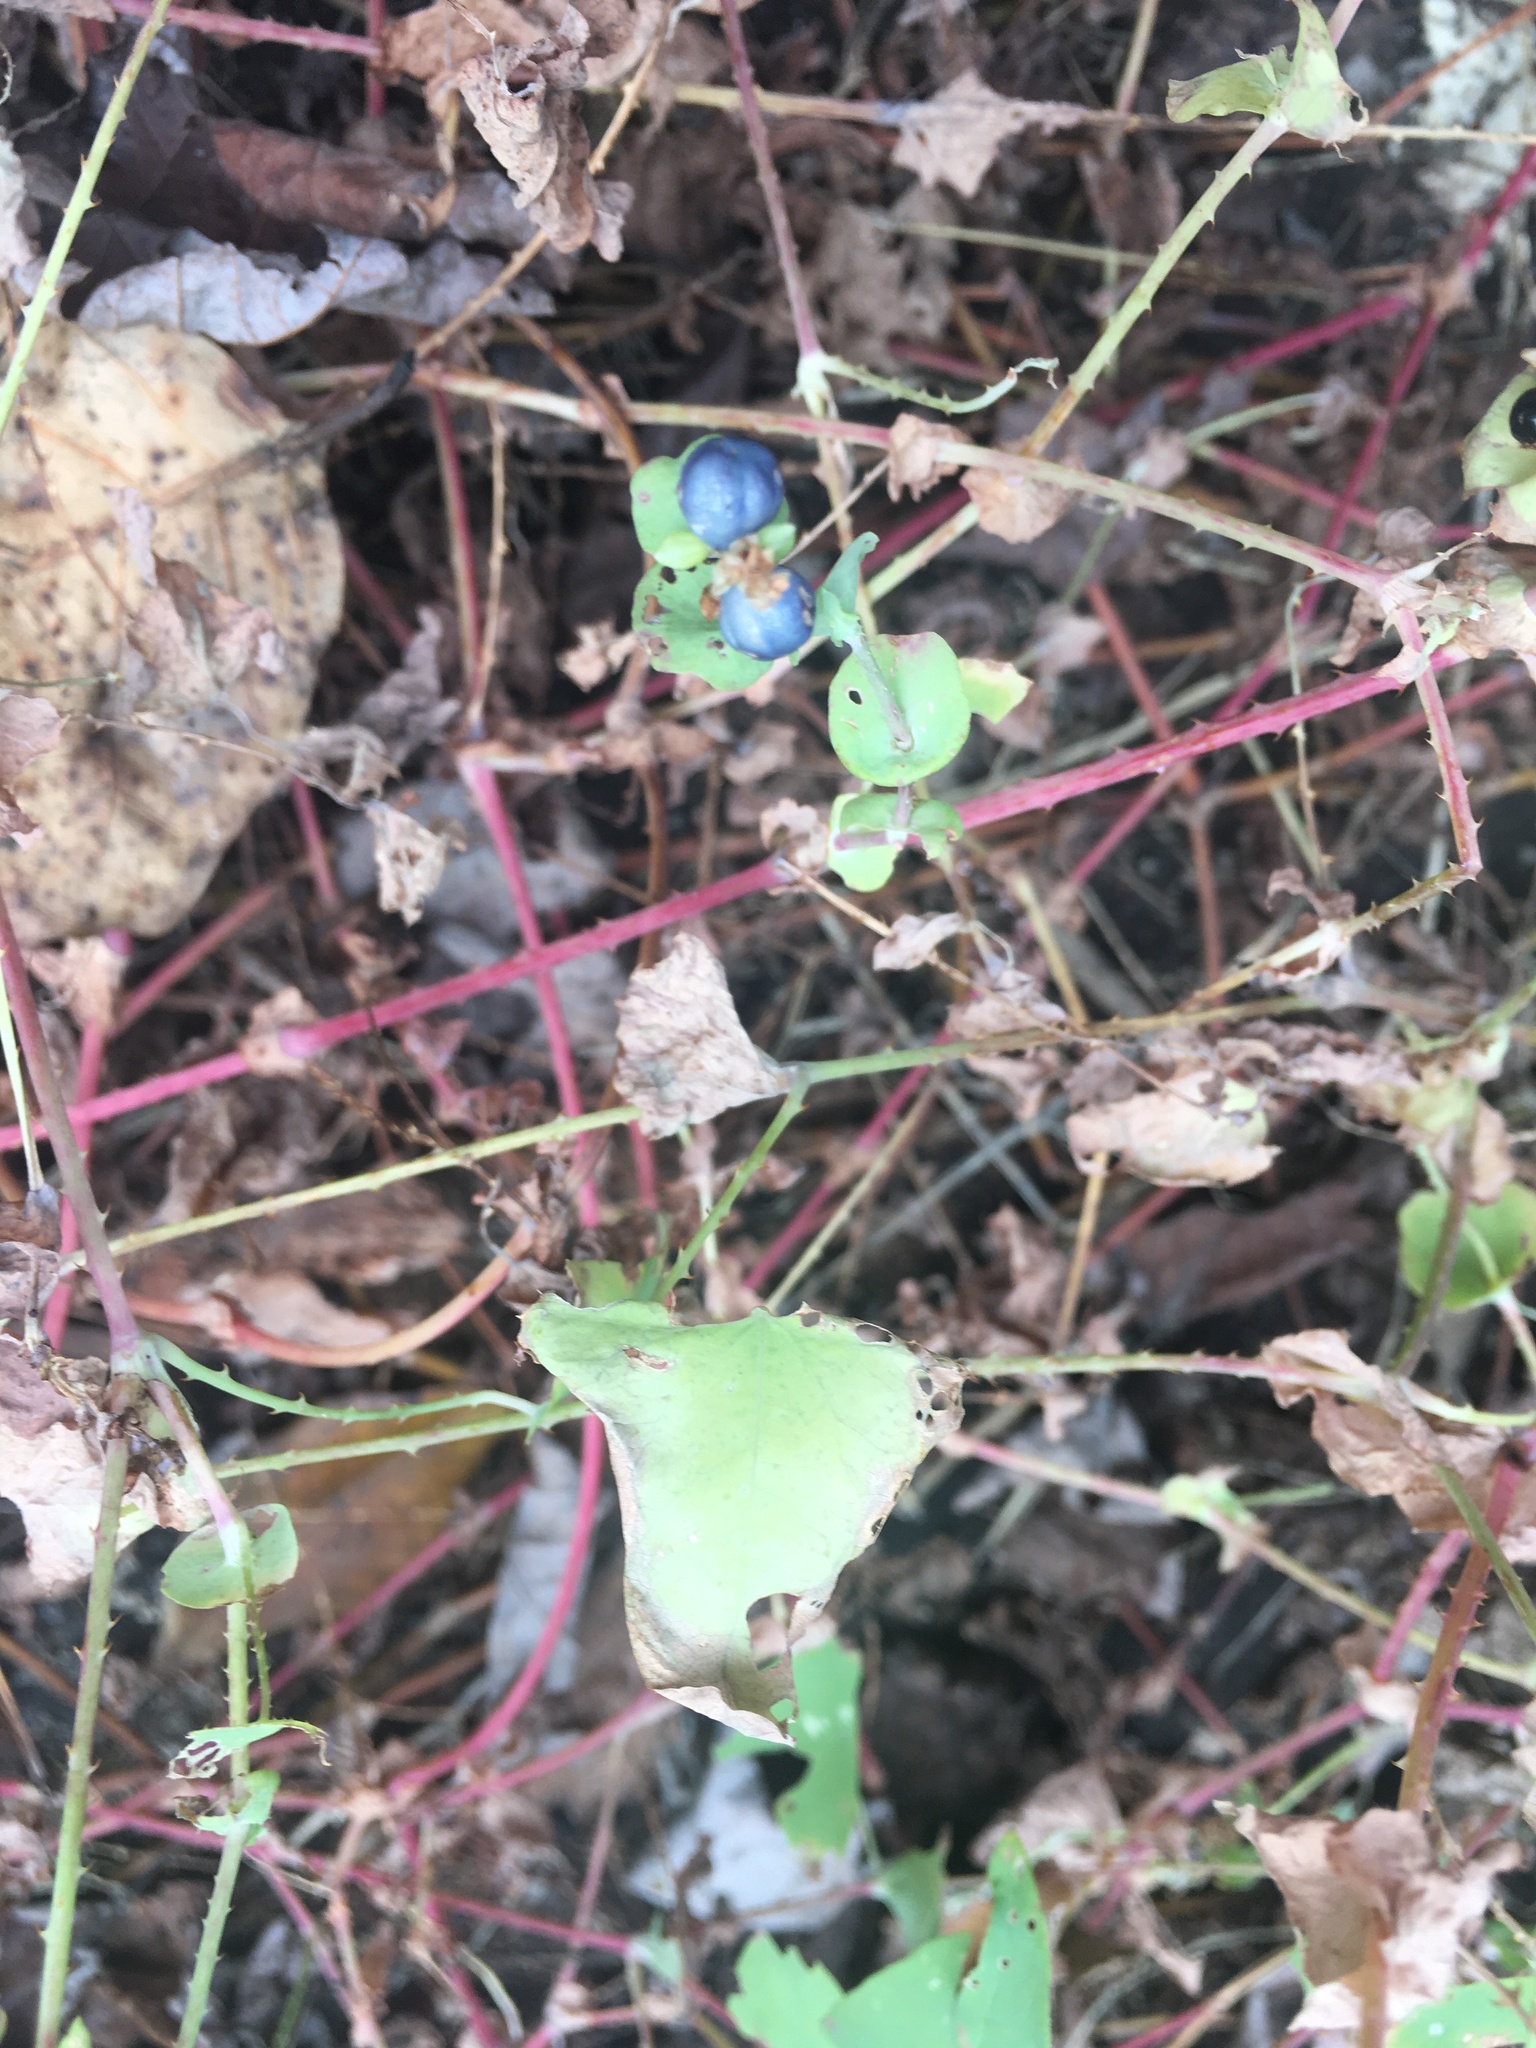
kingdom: Plantae
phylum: Tracheophyta
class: Magnoliopsida
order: Caryophyllales
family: Polygonaceae
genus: Persicaria
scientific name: Persicaria perfoliata
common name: Asiatic tearthumb
